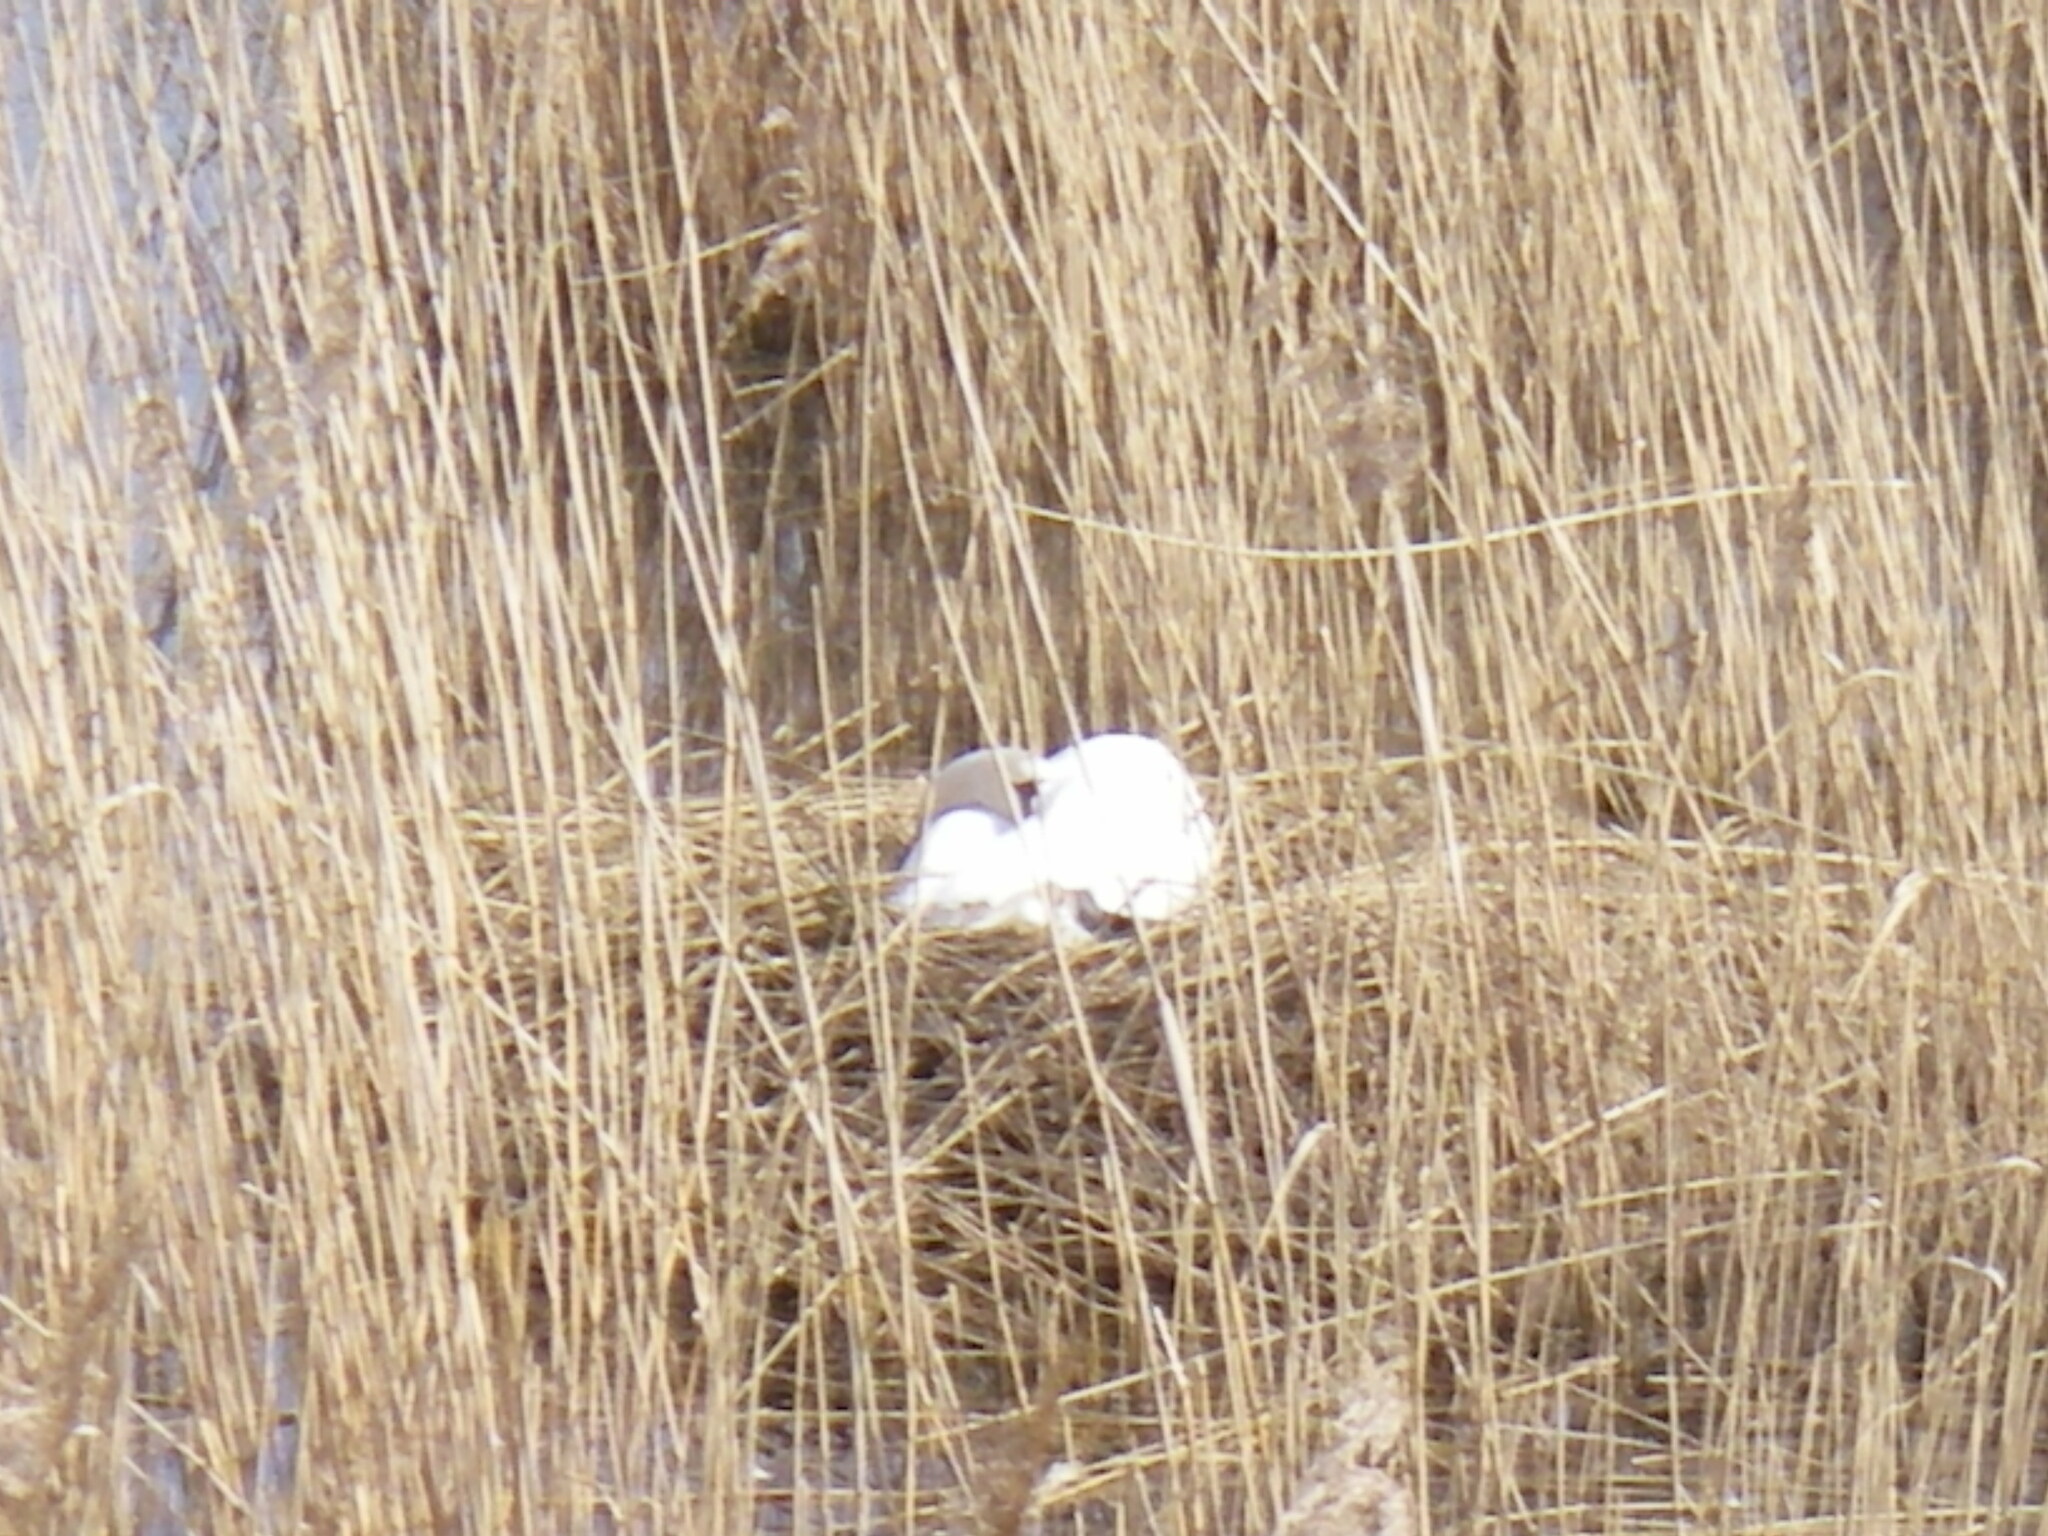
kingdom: Animalia
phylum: Chordata
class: Aves
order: Anseriformes
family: Anatidae
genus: Cygnus
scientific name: Cygnus olor
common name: Mute swan
